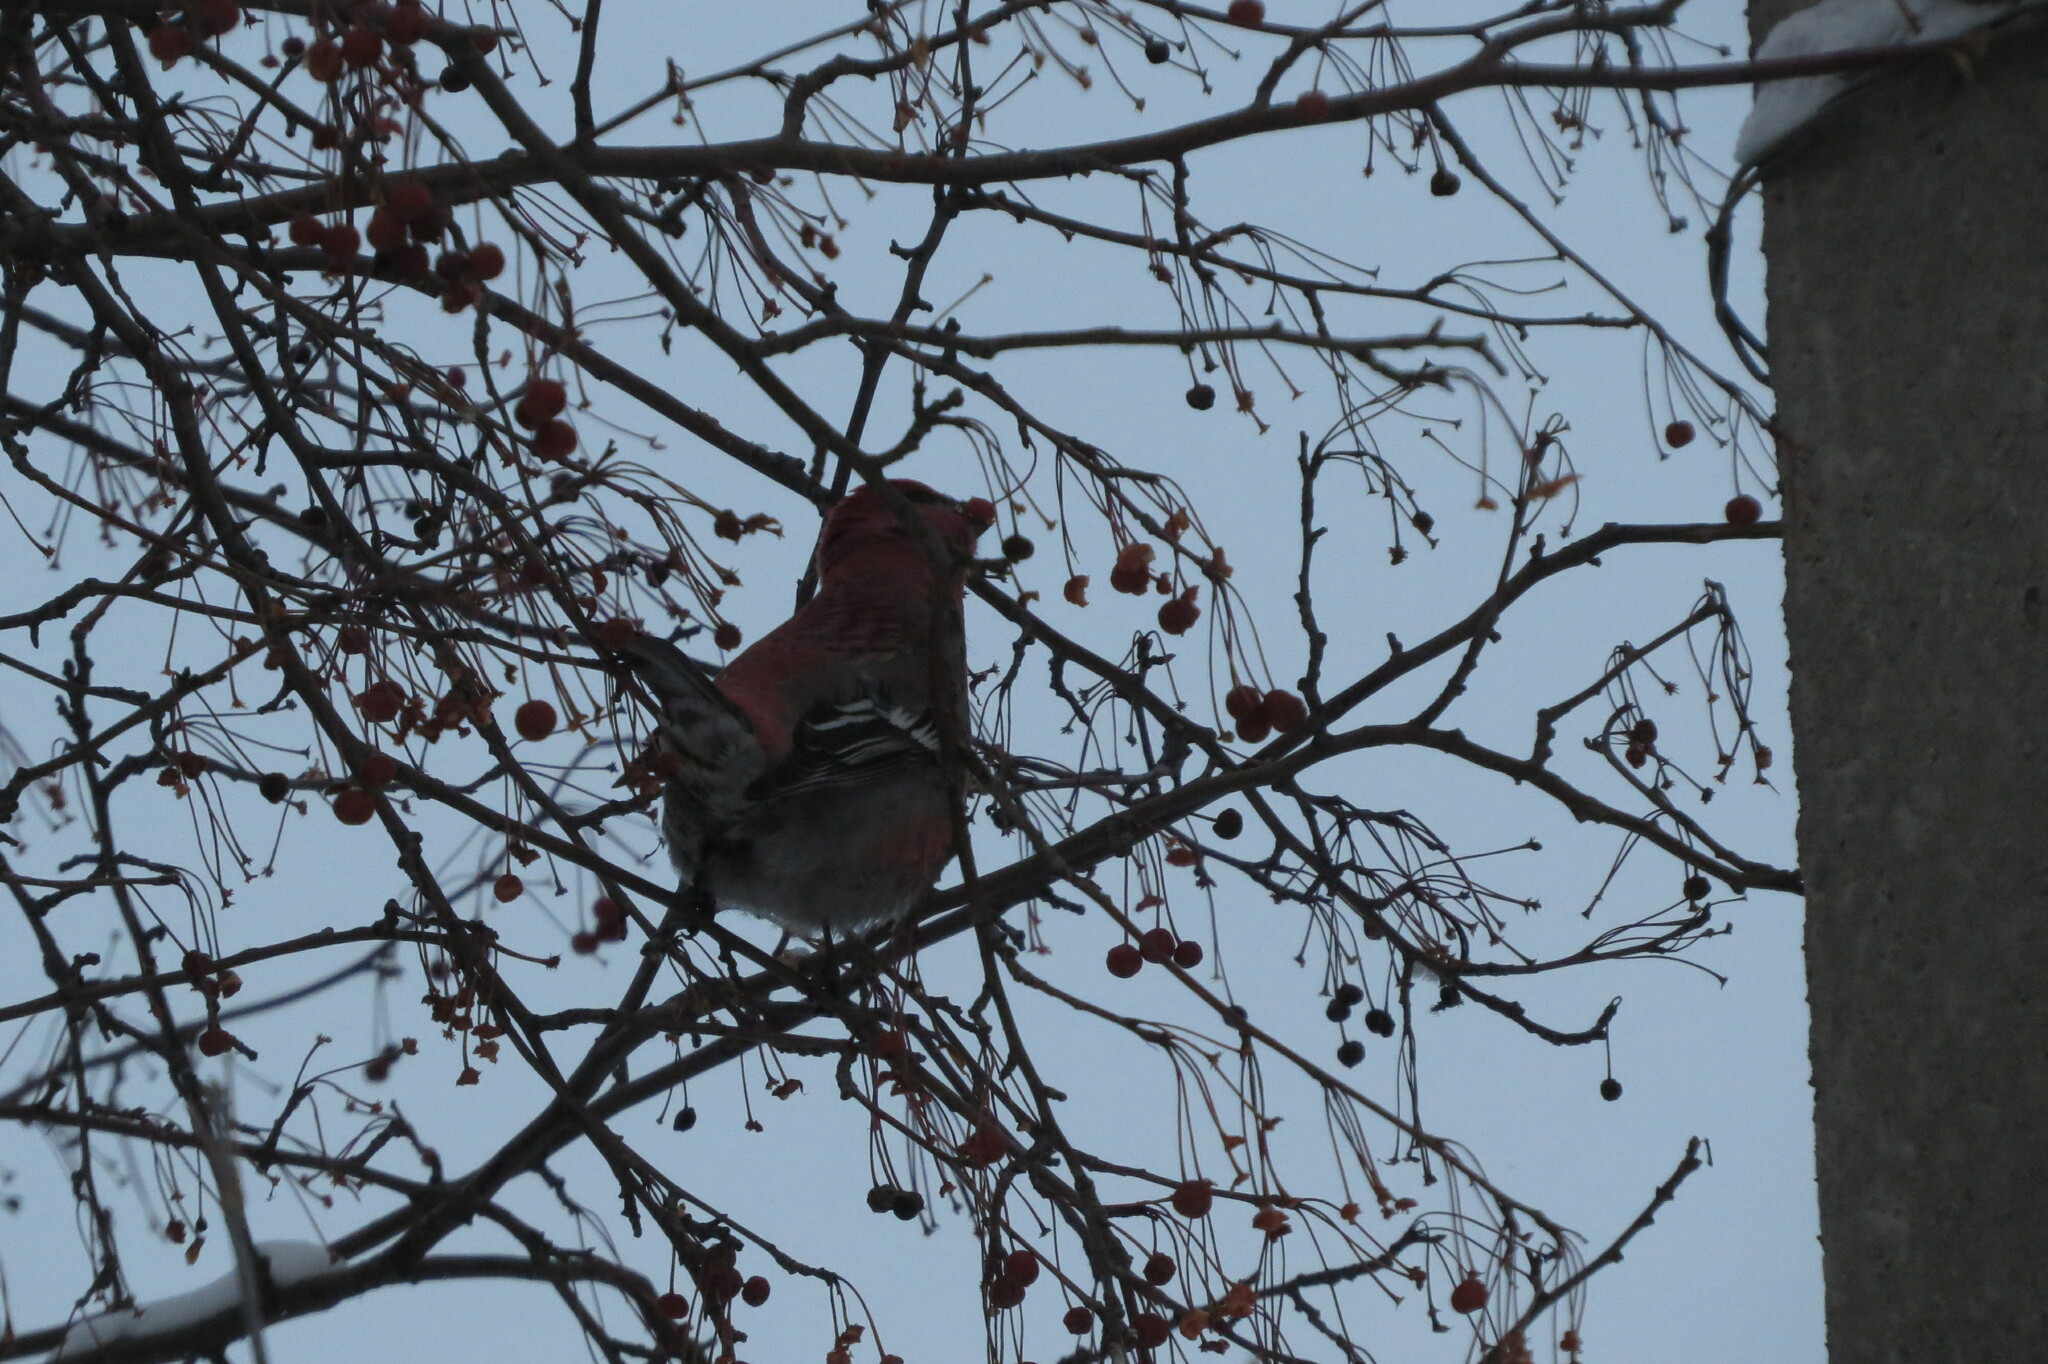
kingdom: Animalia
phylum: Chordata
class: Aves
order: Passeriformes
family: Fringillidae
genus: Pinicola
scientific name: Pinicola enucleator
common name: Pine grosbeak
